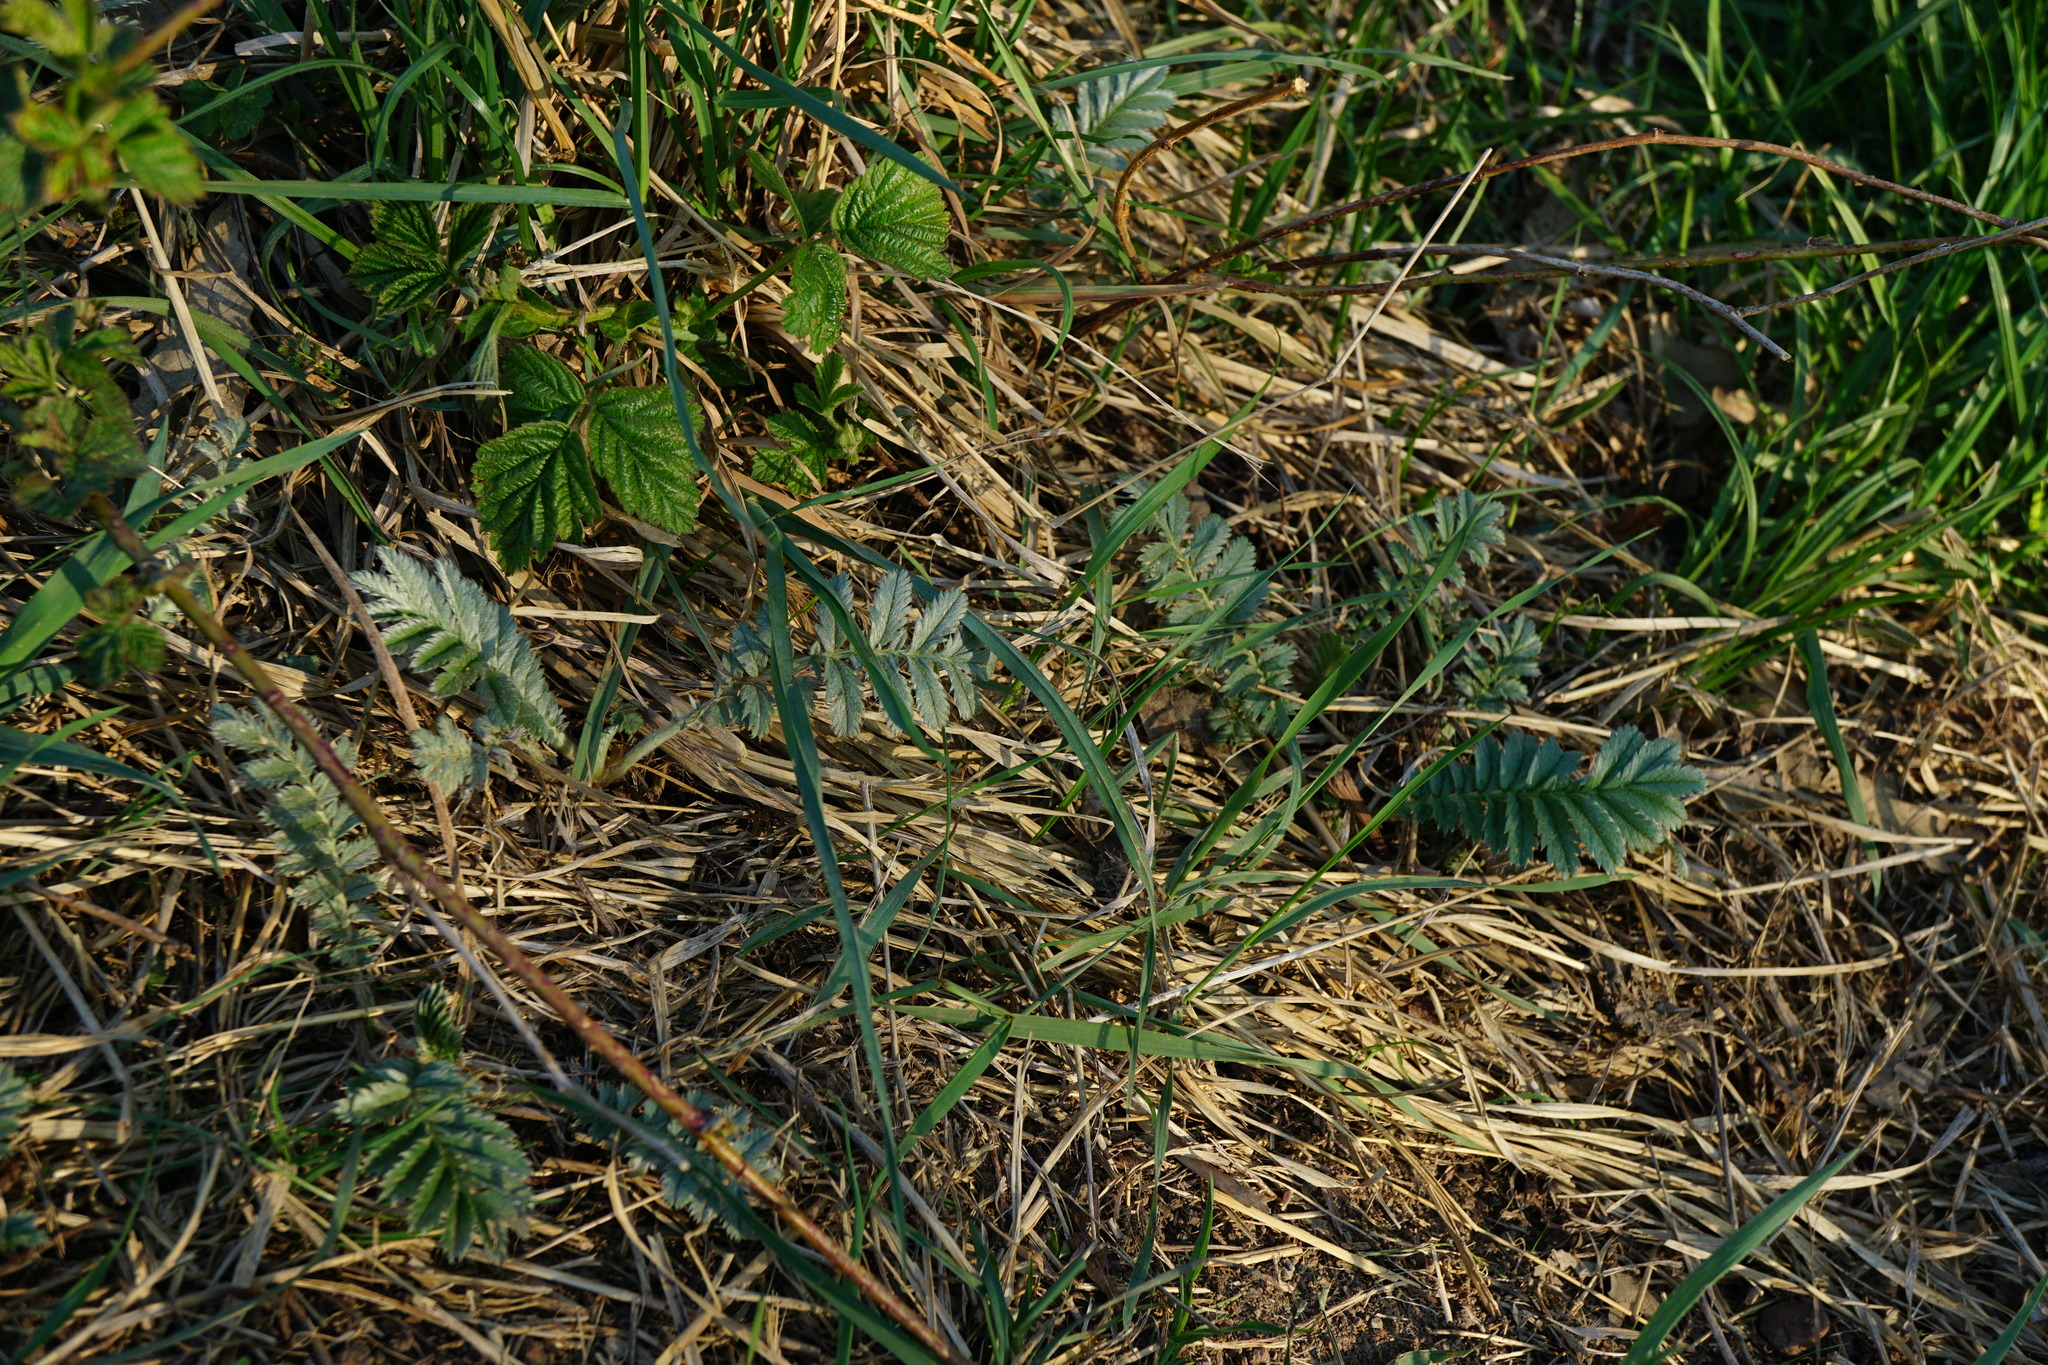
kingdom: Plantae
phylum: Tracheophyta
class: Magnoliopsida
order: Rosales
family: Rosaceae
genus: Argentina
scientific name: Argentina anserina
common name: Common silverweed
